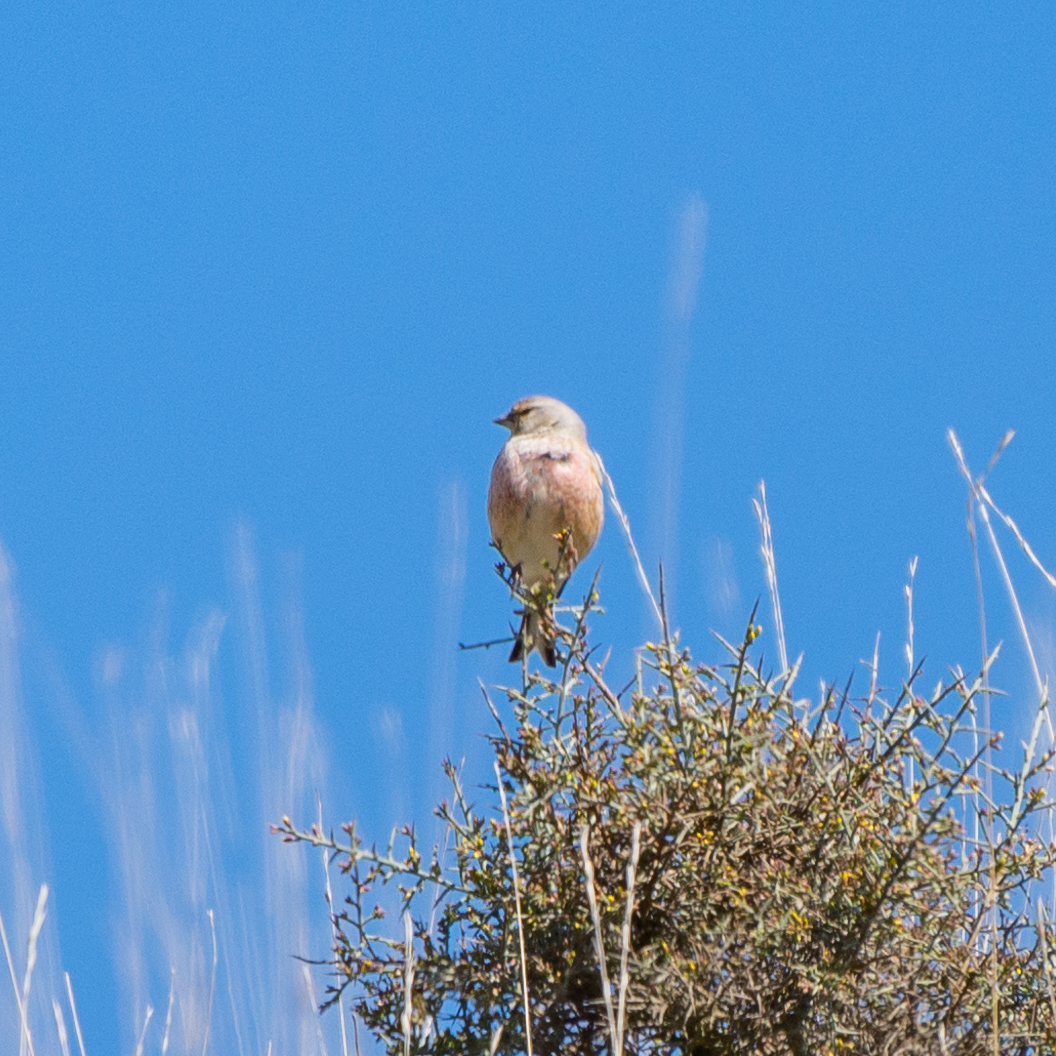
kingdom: Animalia
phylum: Chordata
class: Aves
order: Passeriformes
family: Fringillidae
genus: Linaria
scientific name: Linaria cannabina
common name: Common linnet
